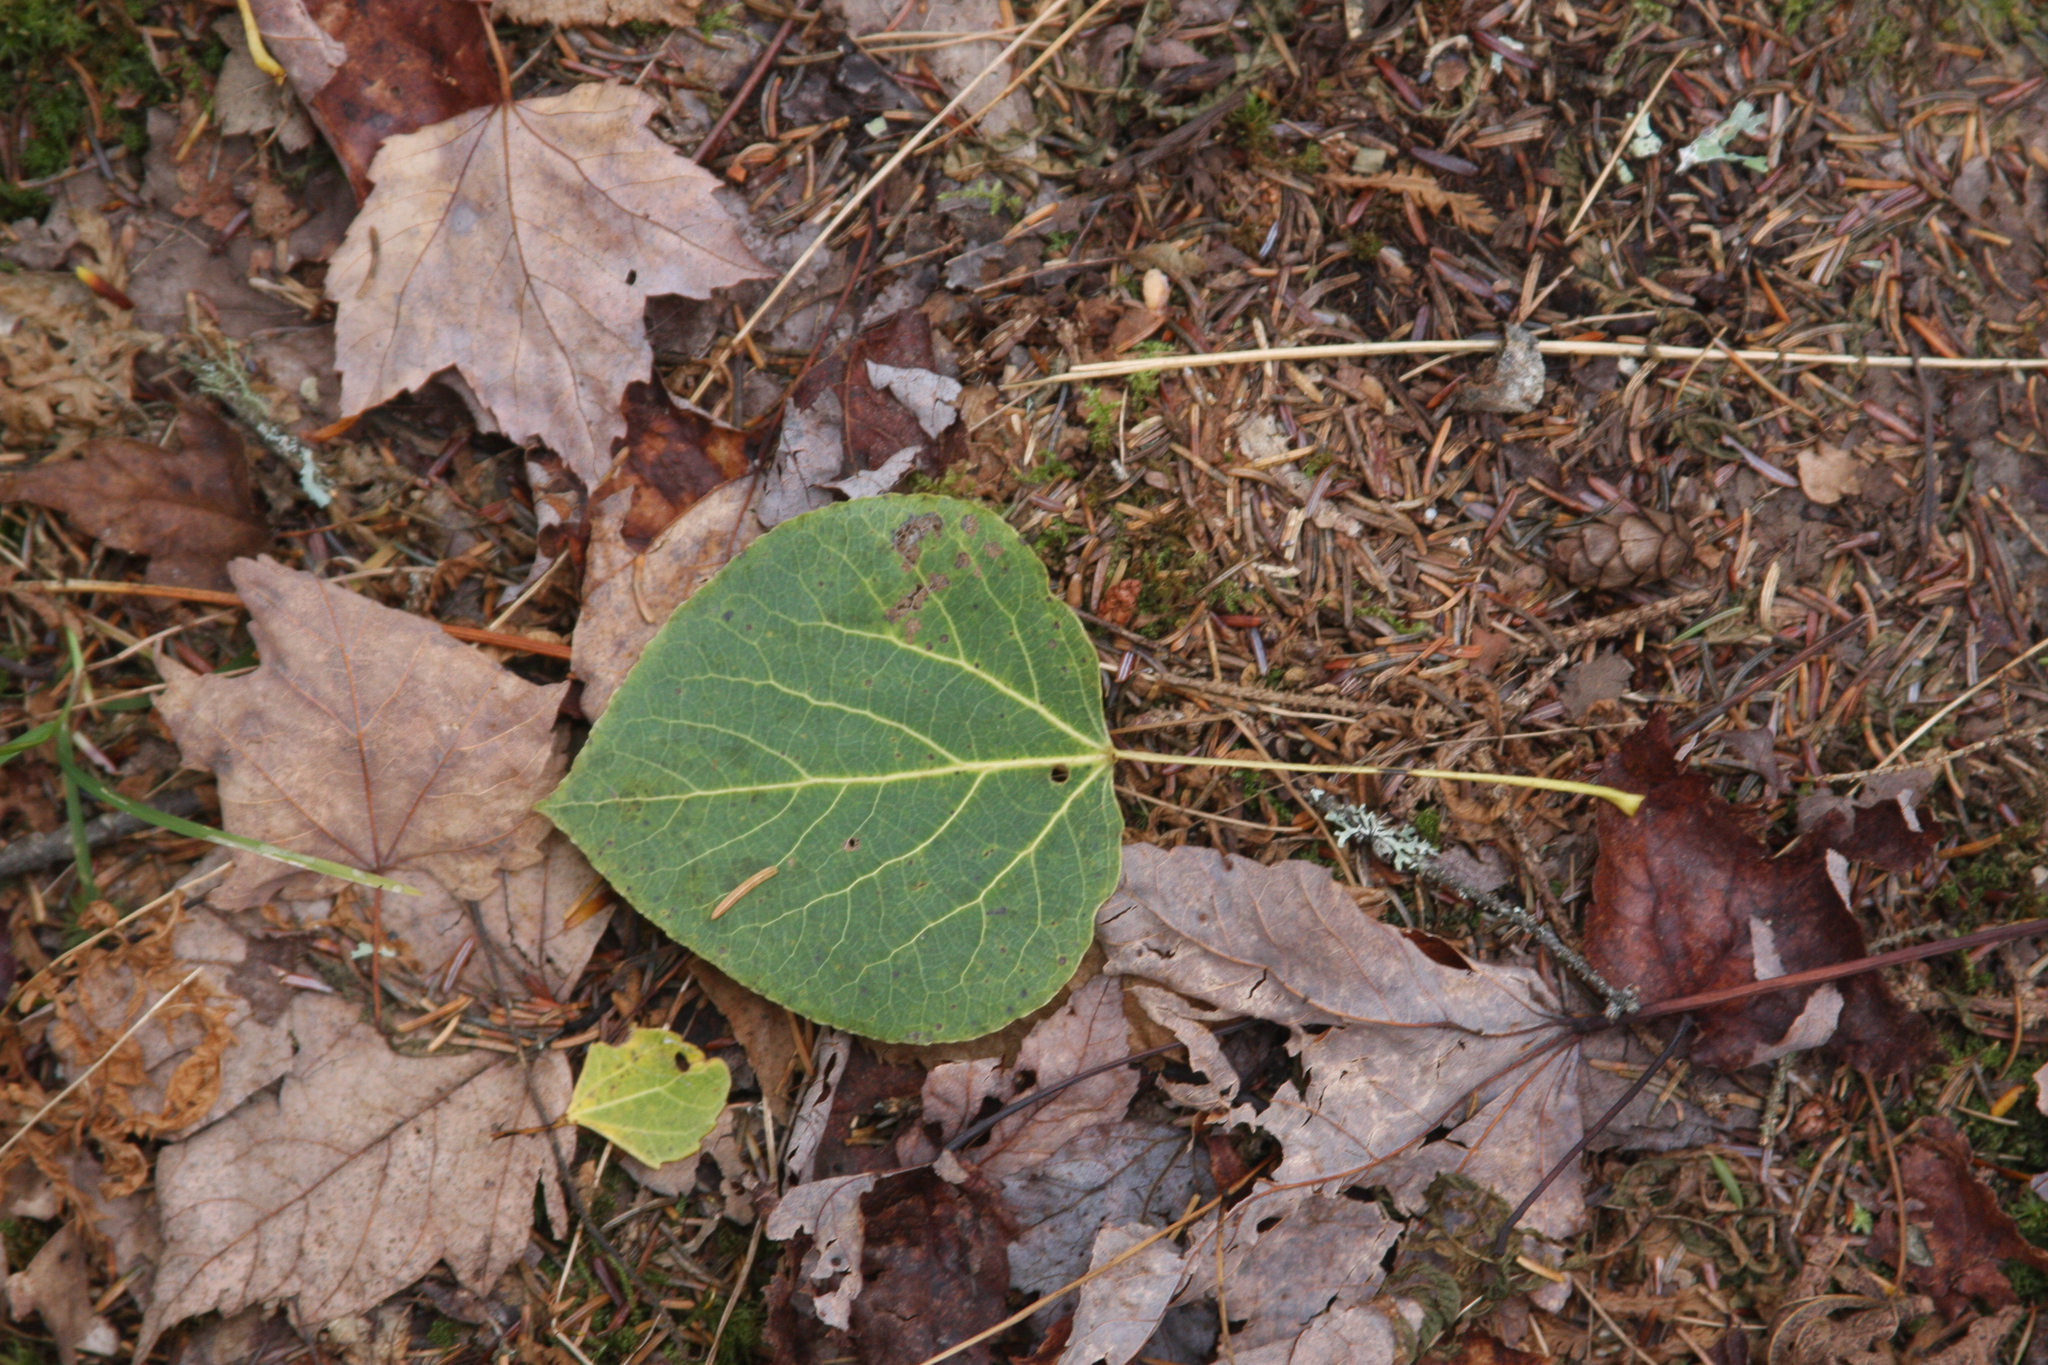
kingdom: Plantae
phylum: Tracheophyta
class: Magnoliopsida
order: Malpighiales
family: Salicaceae
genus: Populus
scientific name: Populus tremuloides
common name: Quaking aspen
